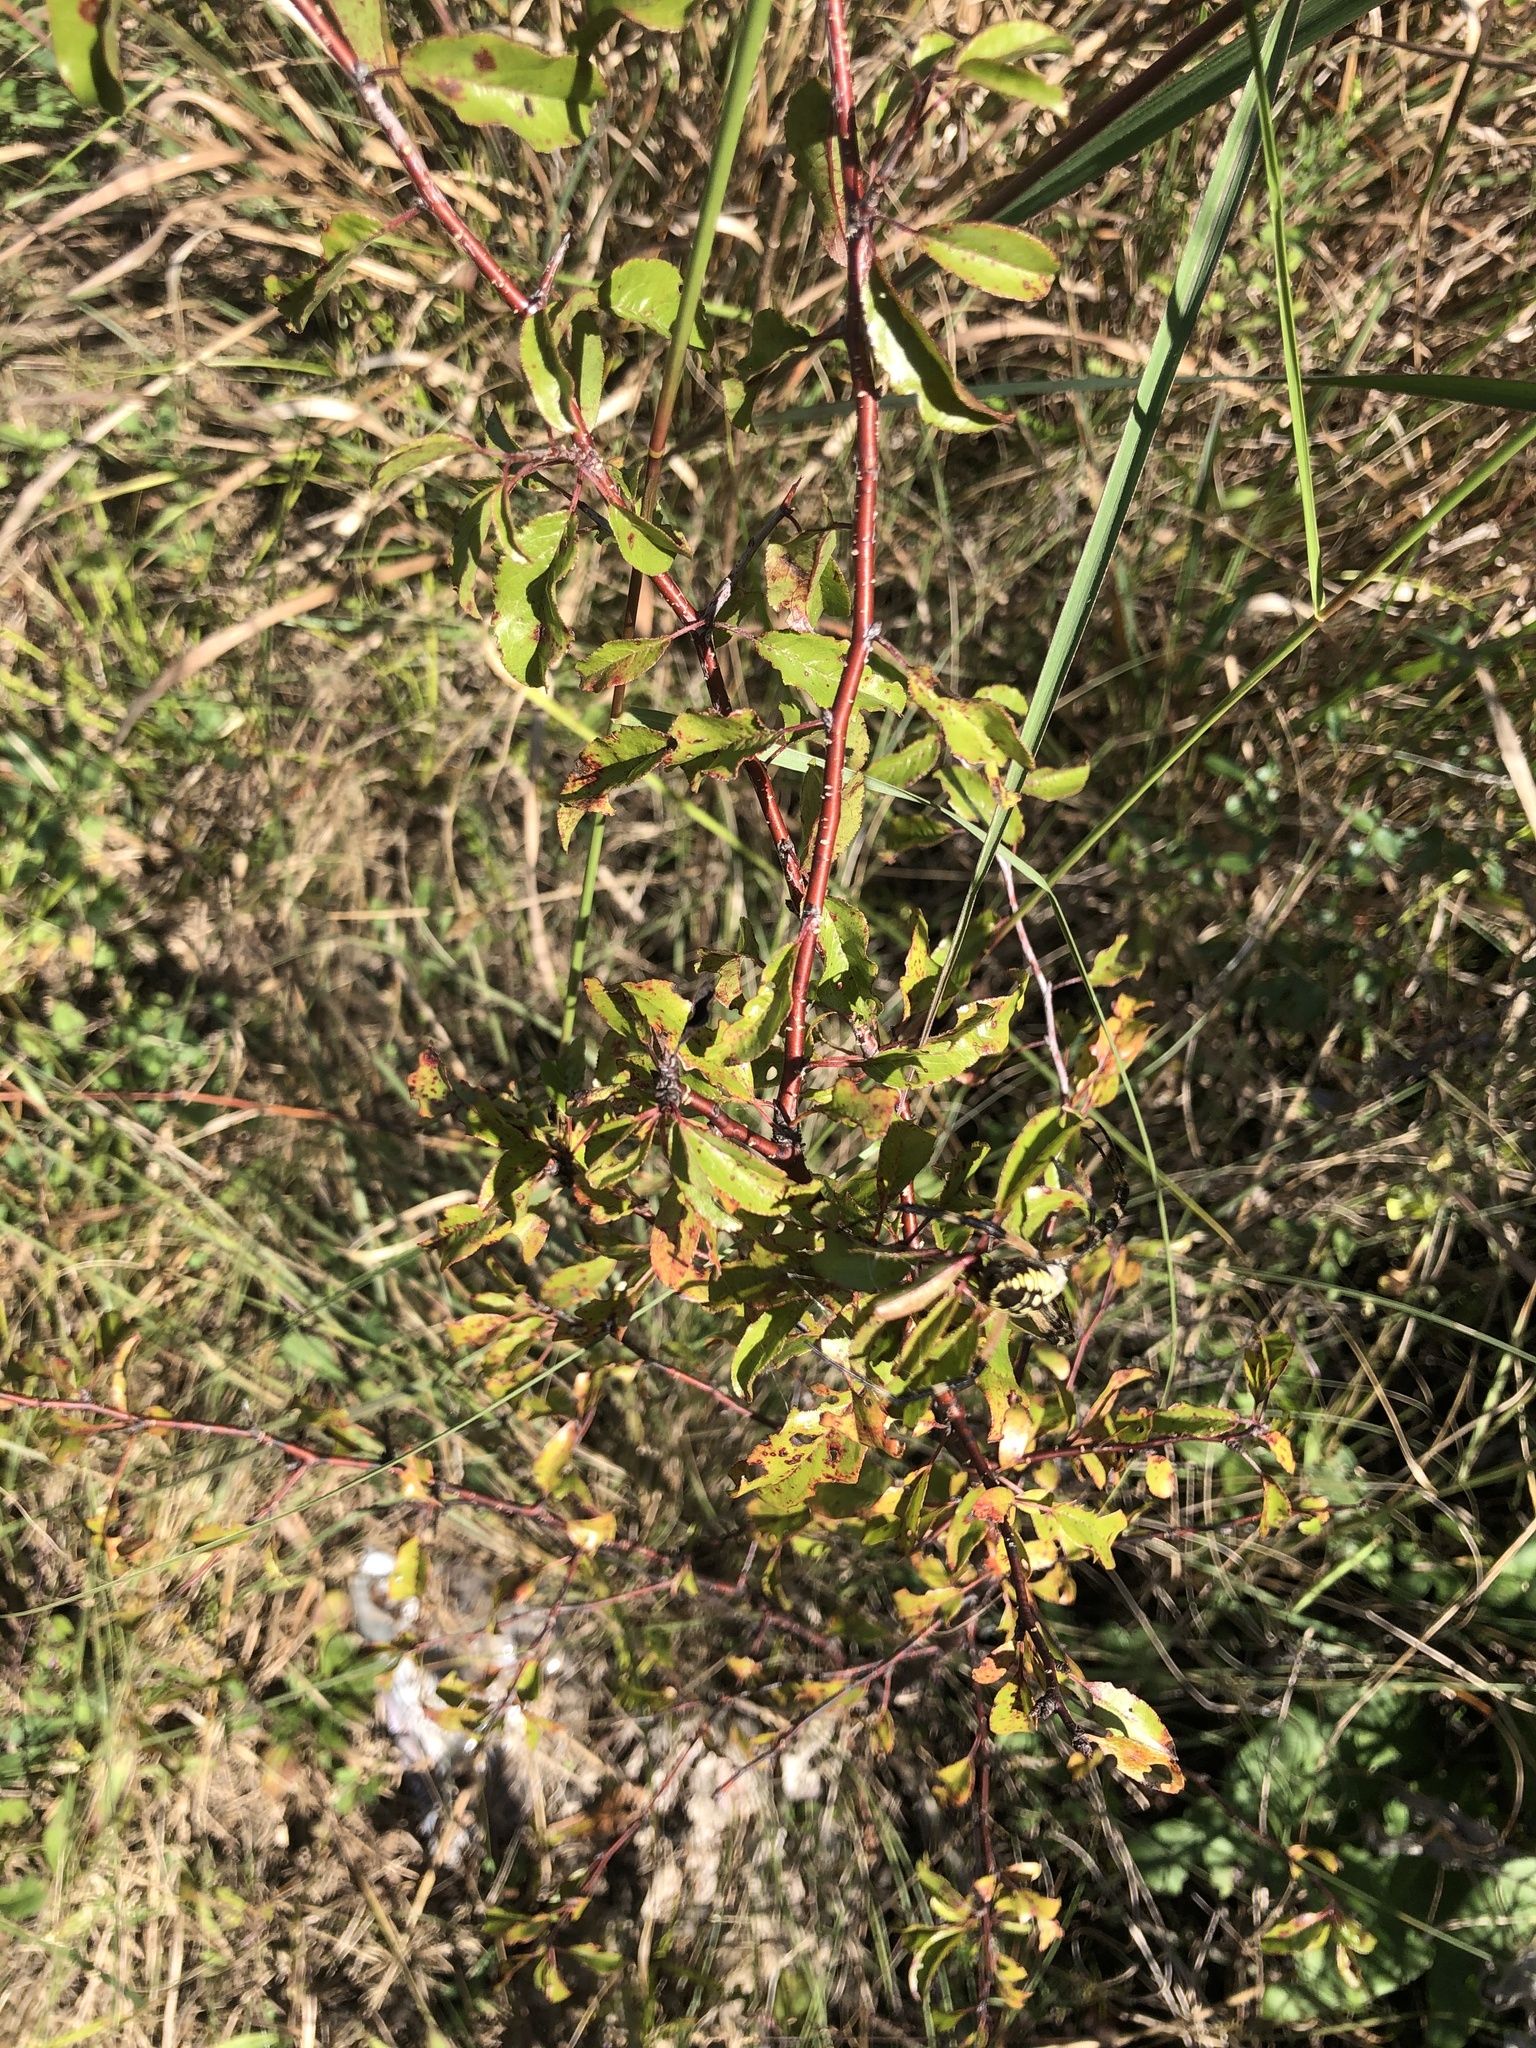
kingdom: Plantae
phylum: Tracheophyta
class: Magnoliopsida
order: Rosales
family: Rosaceae
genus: Prunus
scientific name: Prunus angustifolia
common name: Cherokee plum
